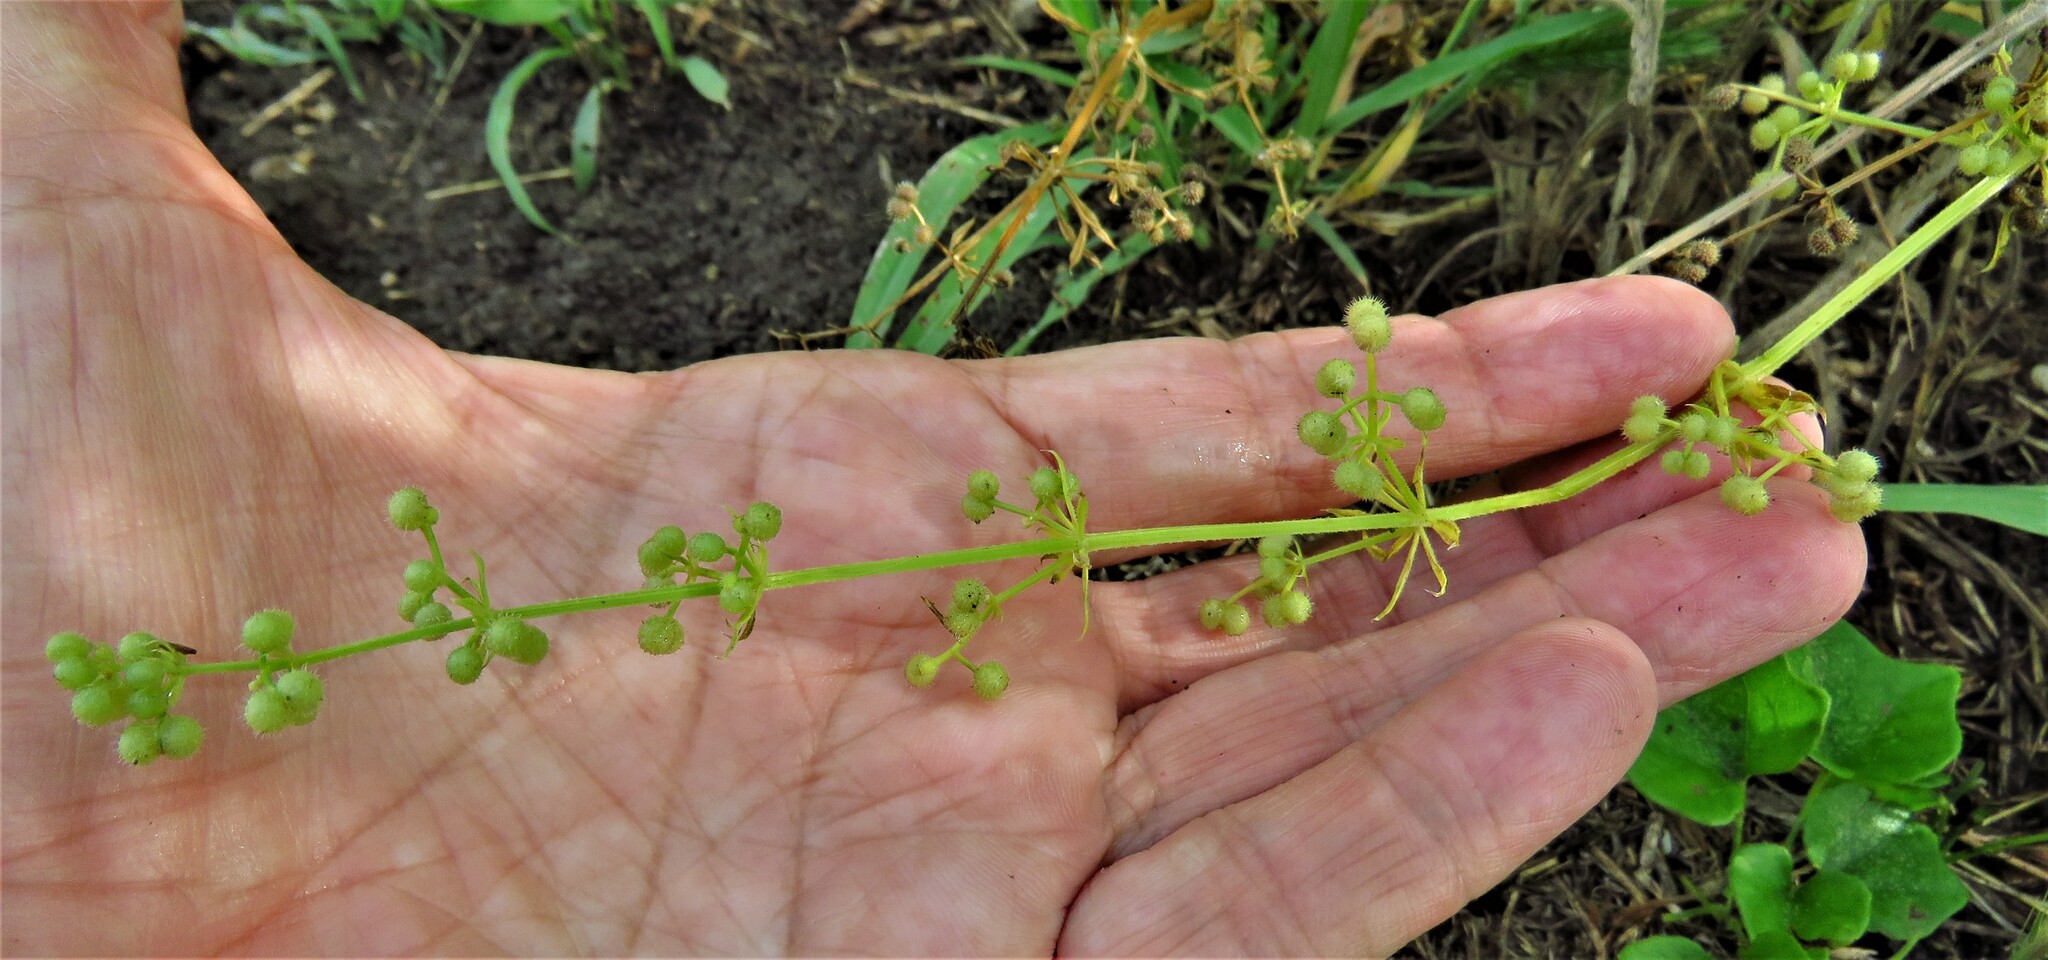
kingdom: Plantae
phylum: Tracheophyta
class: Magnoliopsida
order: Gentianales
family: Rubiaceae
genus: Galium
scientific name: Galium aparine
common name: Cleavers
